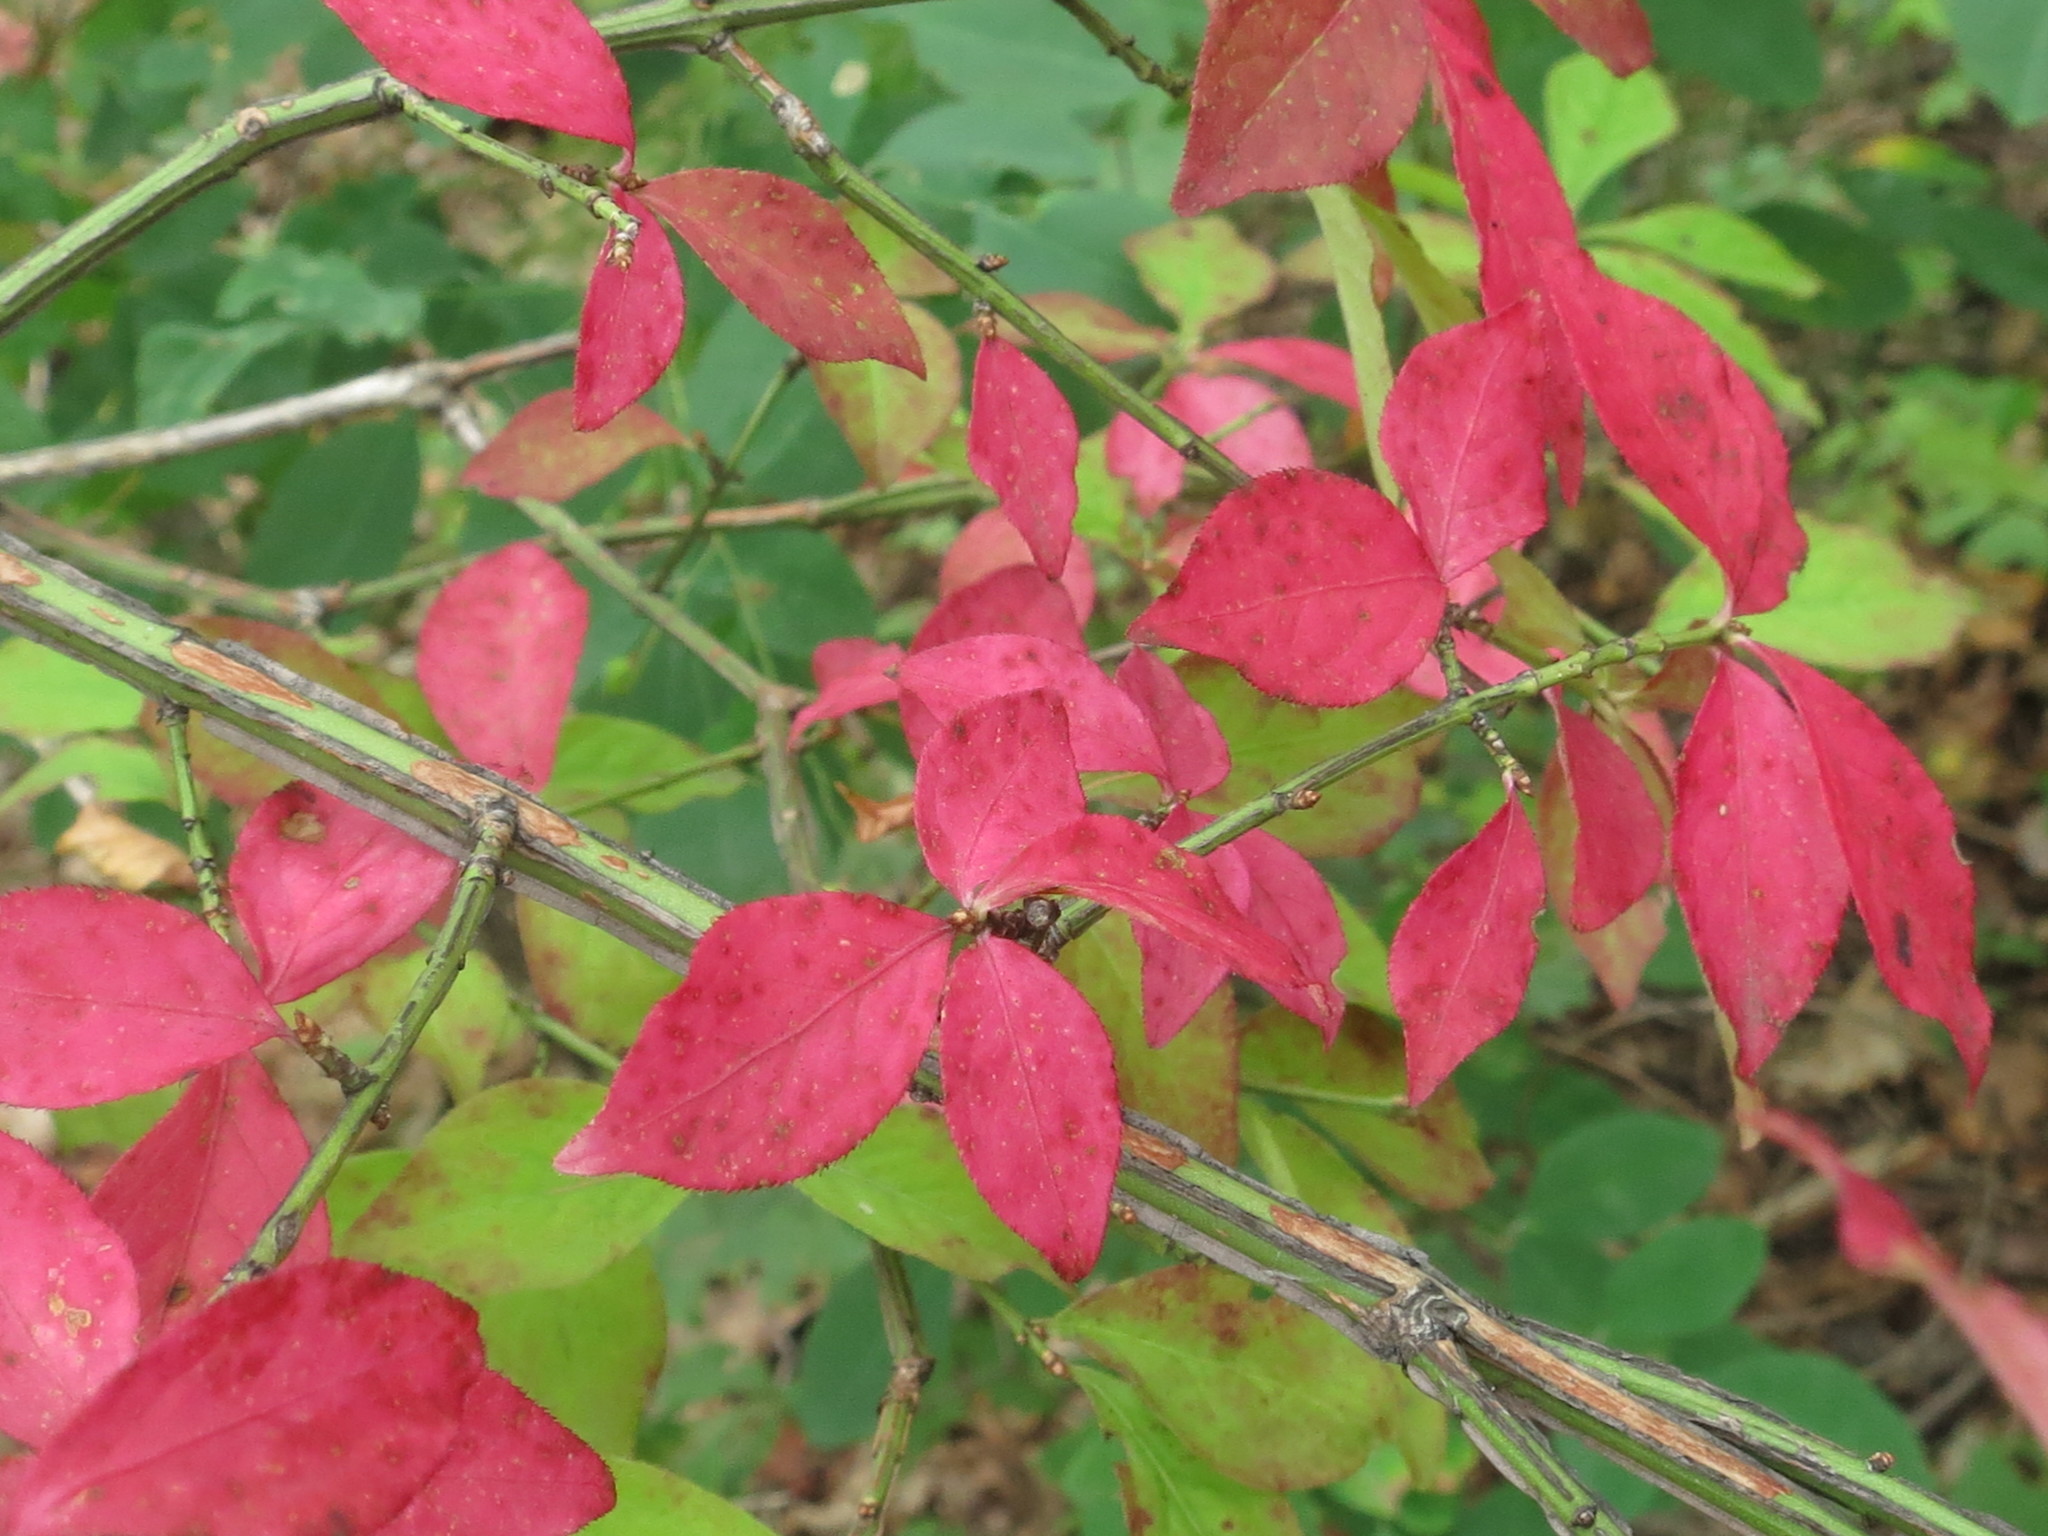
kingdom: Plantae
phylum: Tracheophyta
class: Magnoliopsida
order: Celastrales
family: Celastraceae
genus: Euonymus
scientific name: Euonymus alatus
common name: Winged euonymus
